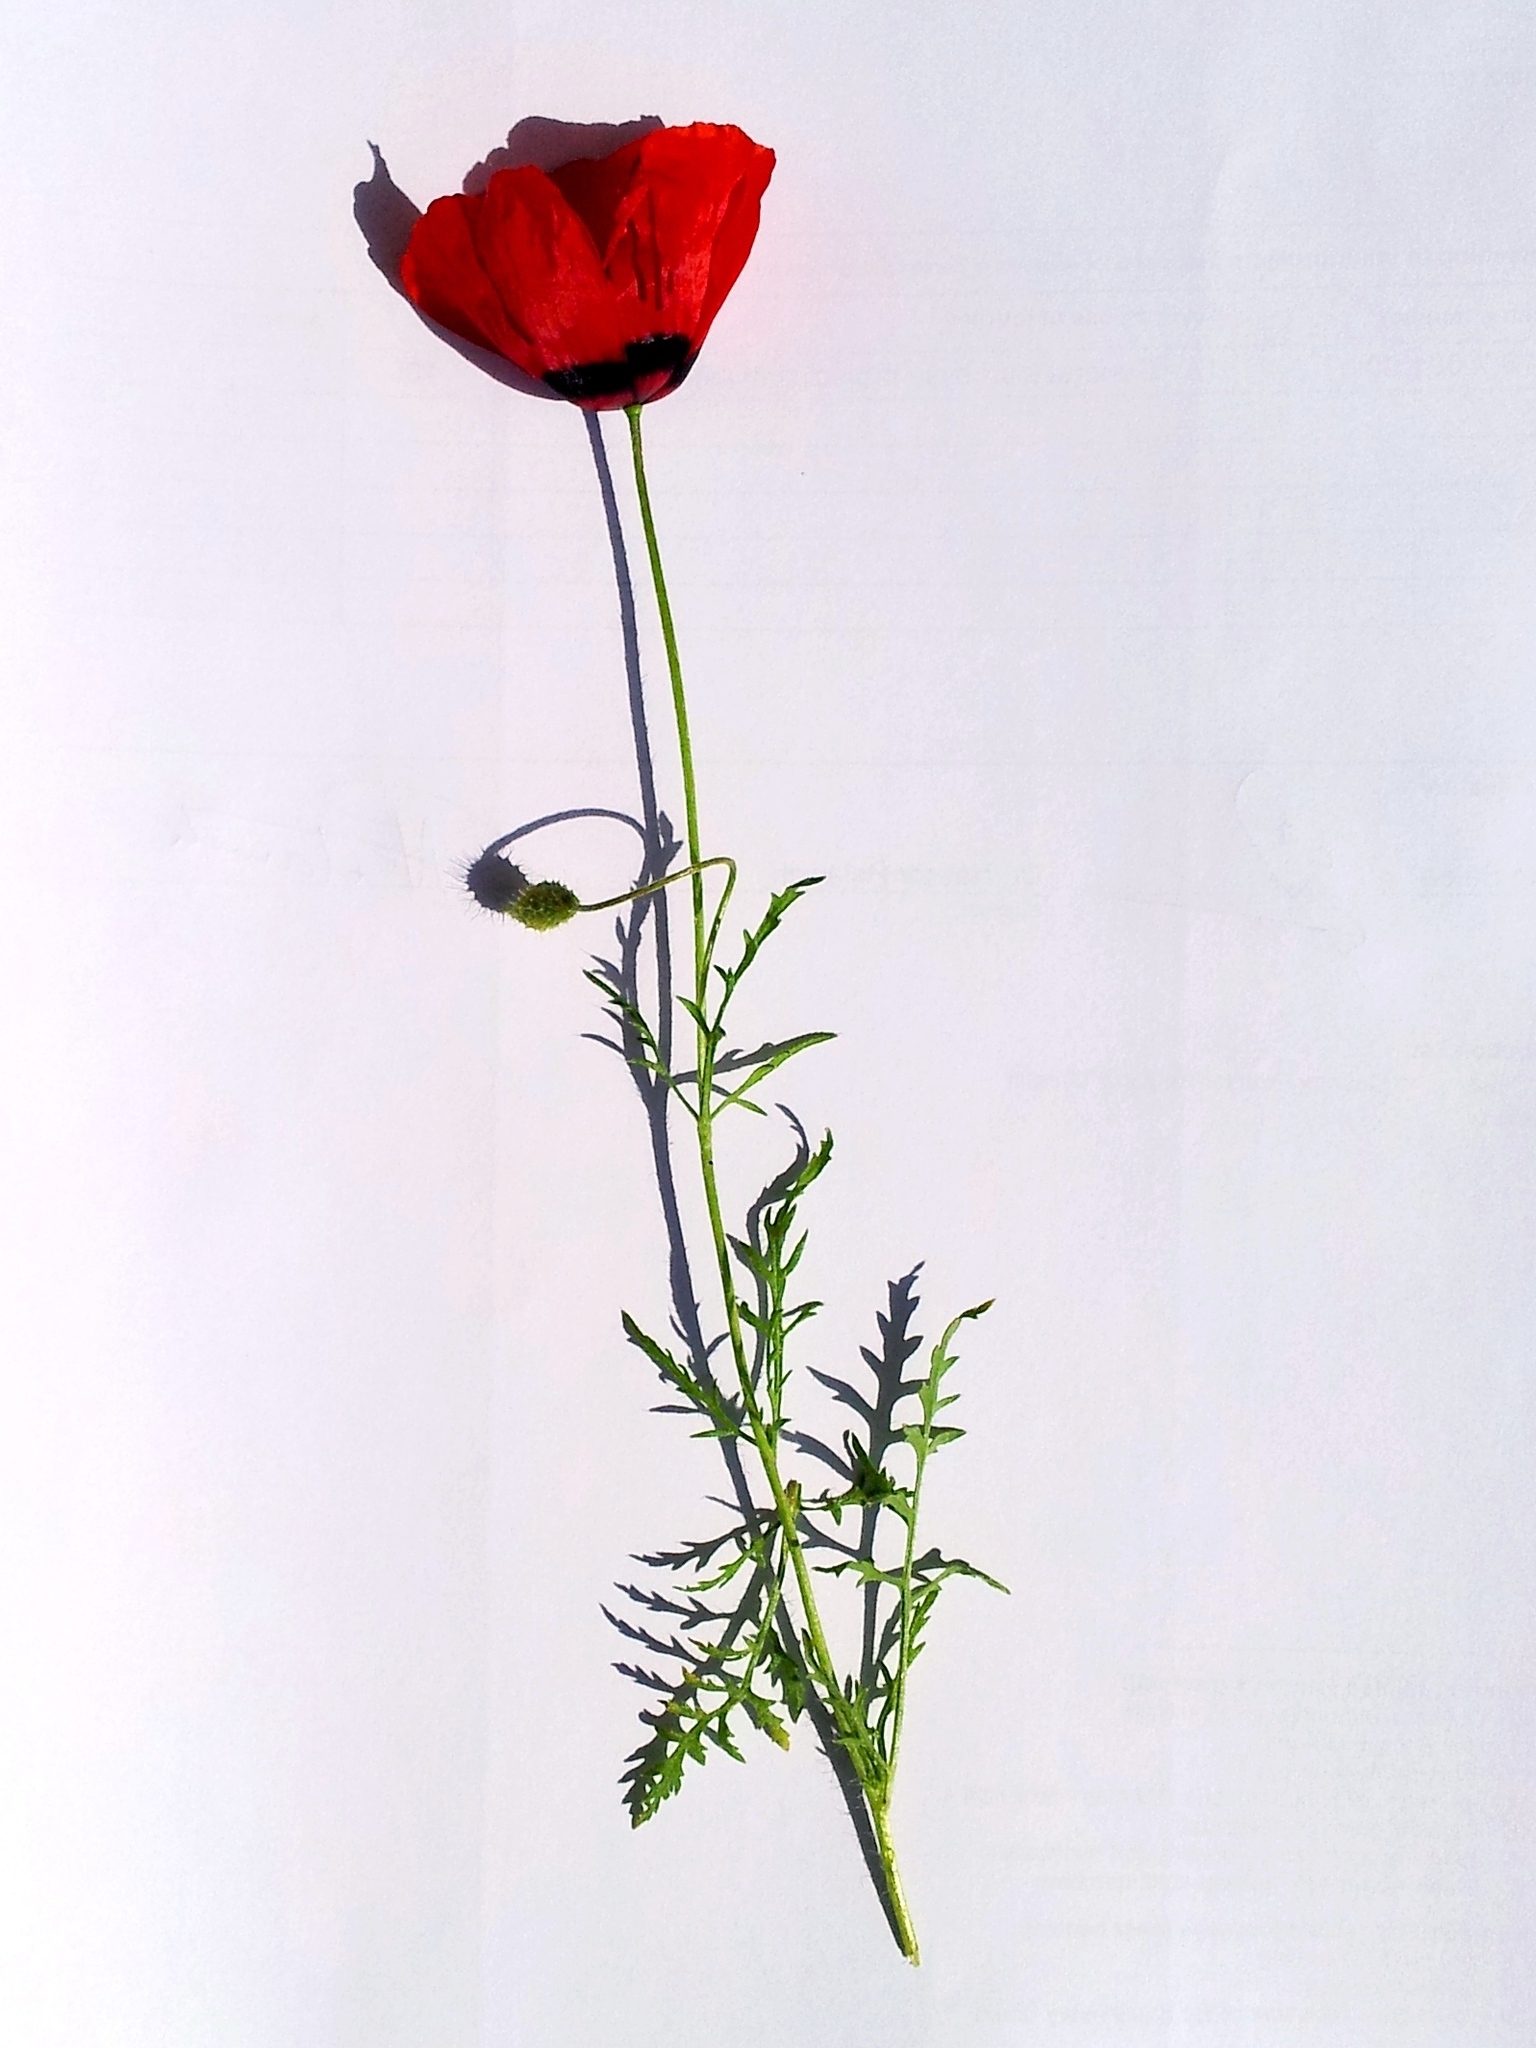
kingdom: Plantae
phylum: Tracheophyta
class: Magnoliopsida
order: Ranunculales
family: Papaveraceae
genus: Roemeria
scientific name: Roemeria pavonina
